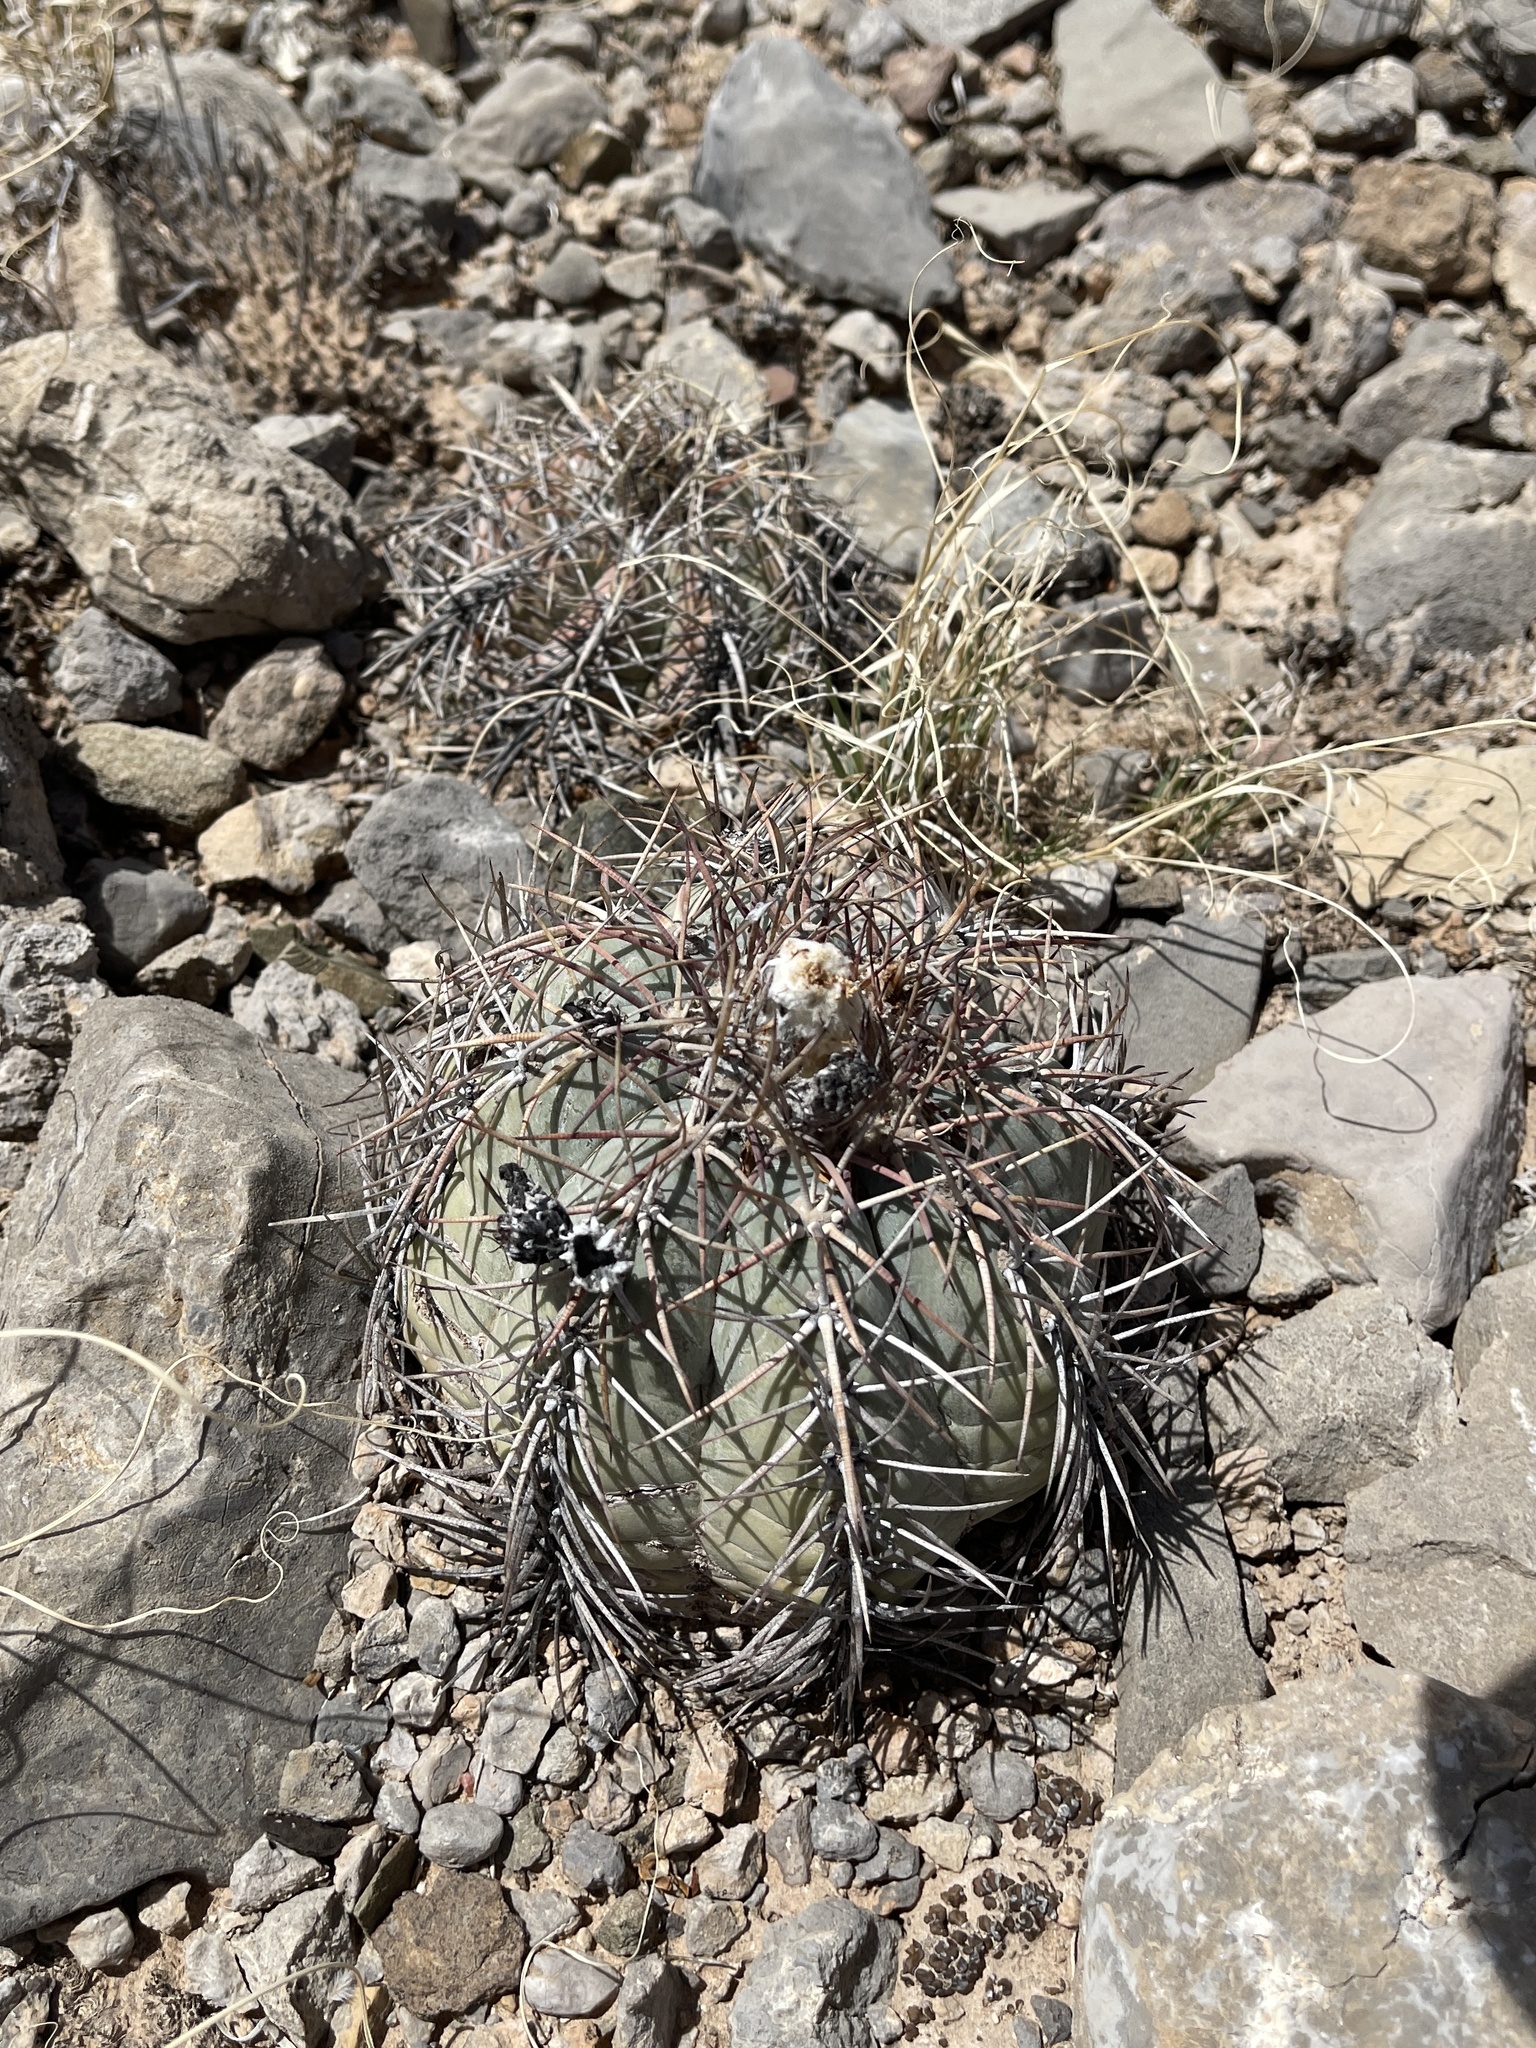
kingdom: Plantae
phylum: Tracheophyta
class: Magnoliopsida
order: Caryophyllales
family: Cactaceae
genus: Echinocactus
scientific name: Echinocactus horizonthalonius
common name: Devilshead
